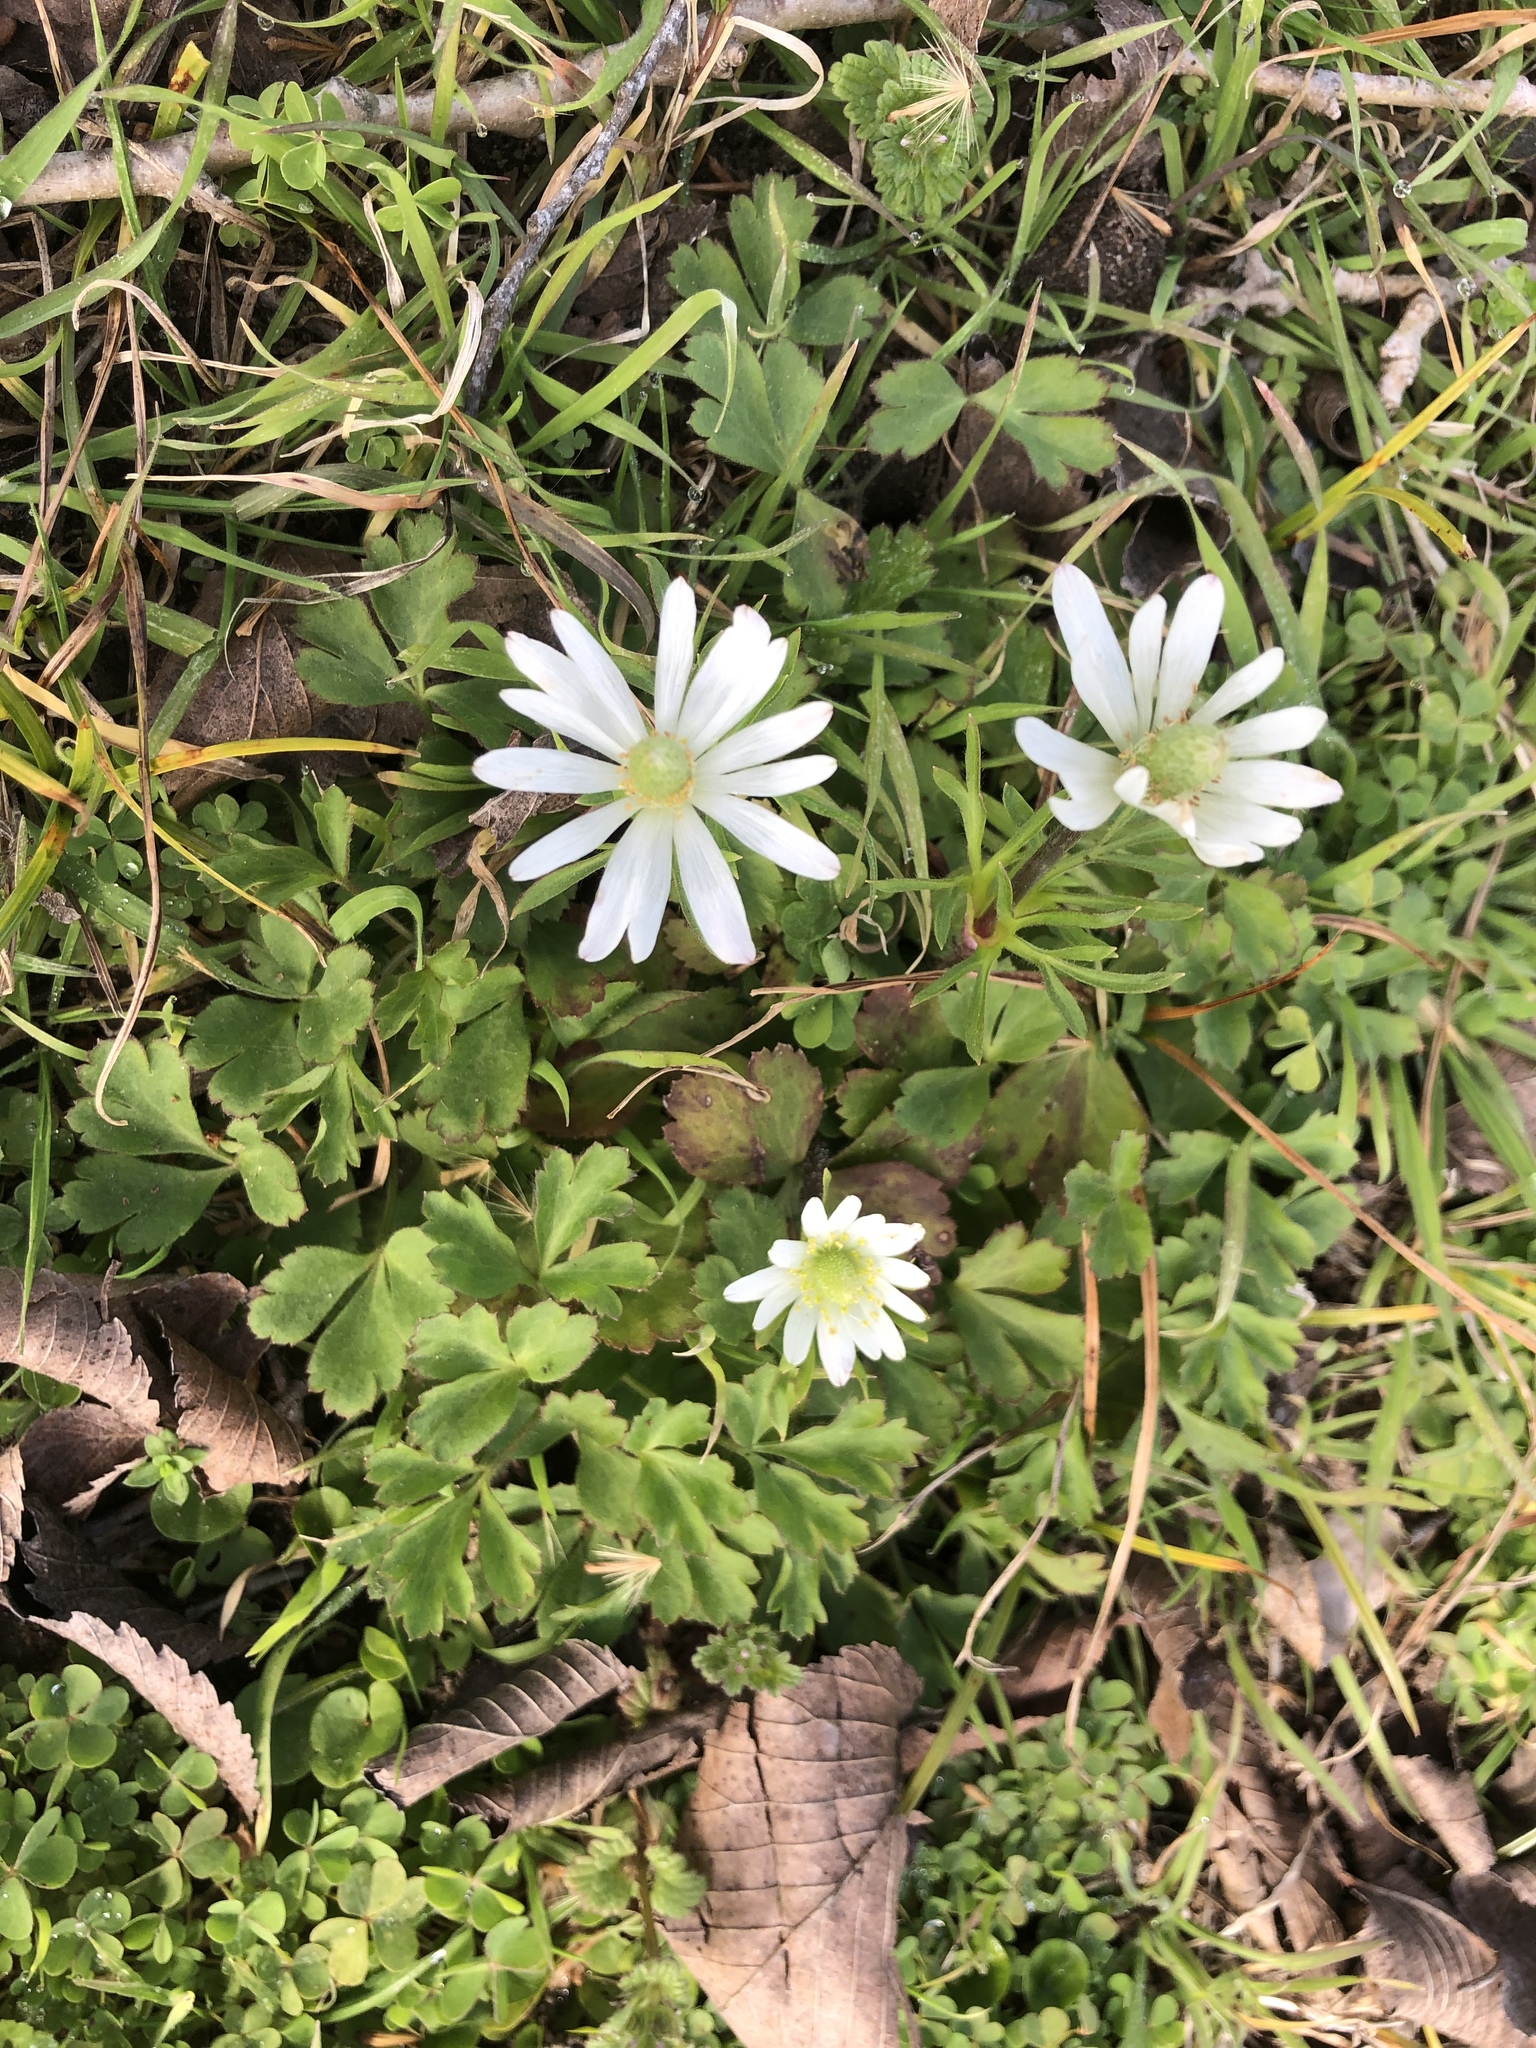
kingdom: Plantae
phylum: Tracheophyta
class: Magnoliopsida
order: Ranunculales
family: Ranunculaceae
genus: Anemone
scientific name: Anemone berlandieri
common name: Ten-petal anemone
